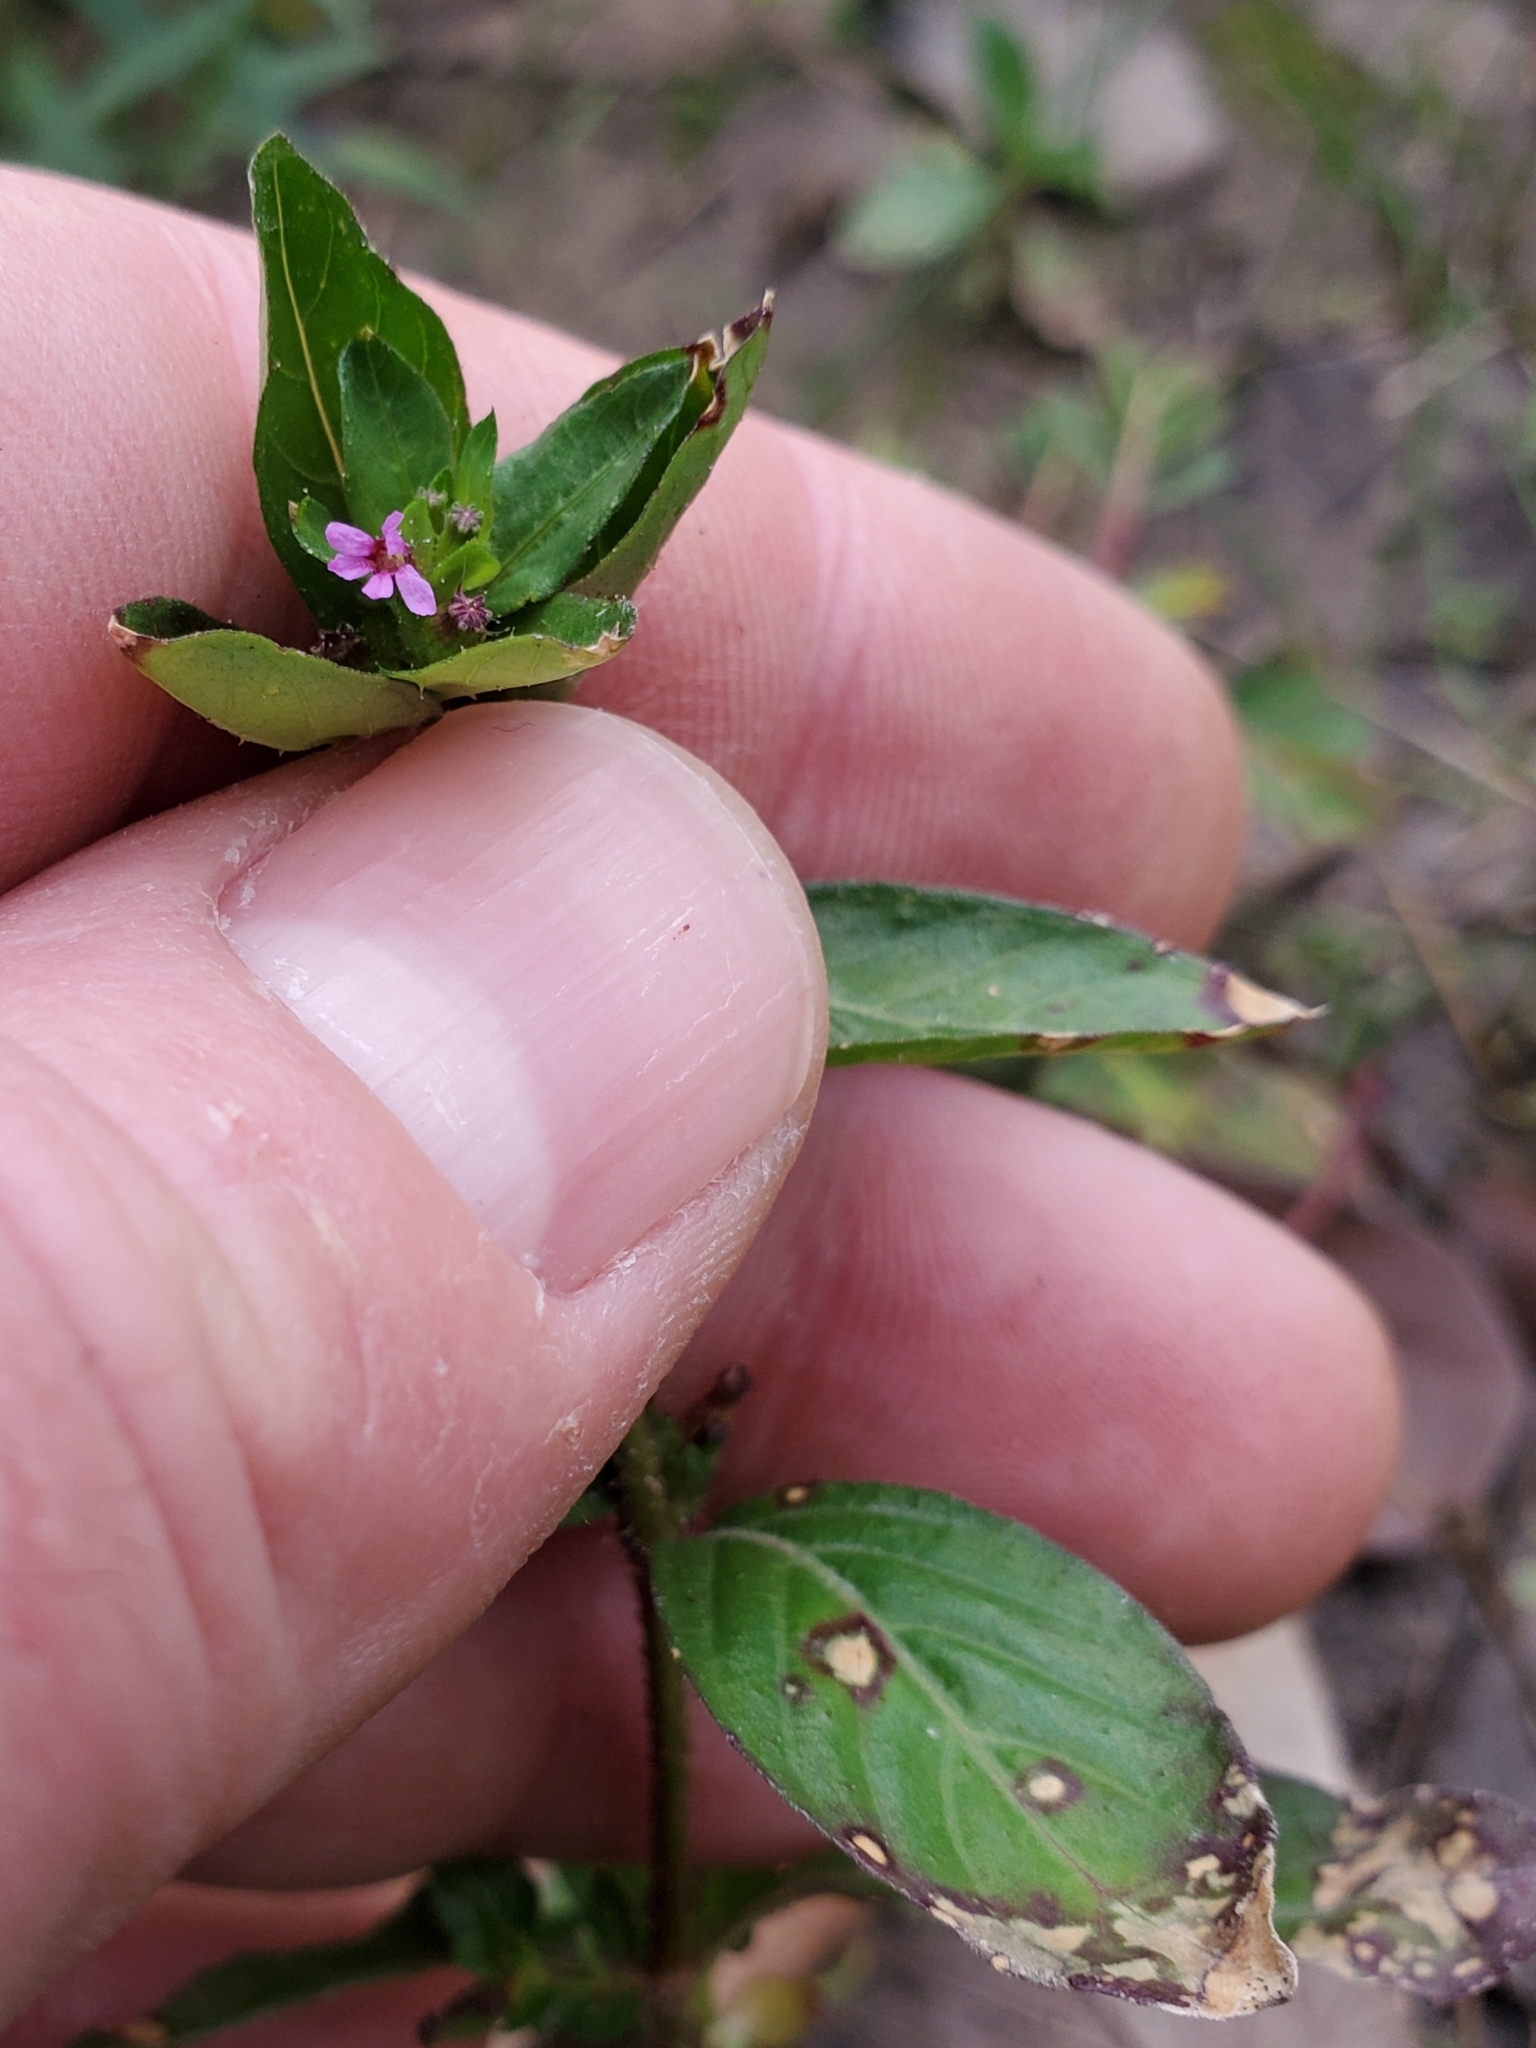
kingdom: Plantae
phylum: Tracheophyta
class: Magnoliopsida
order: Myrtales
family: Lythraceae
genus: Cuphea
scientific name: Cuphea carthagenensis
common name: Colombian waxweed
